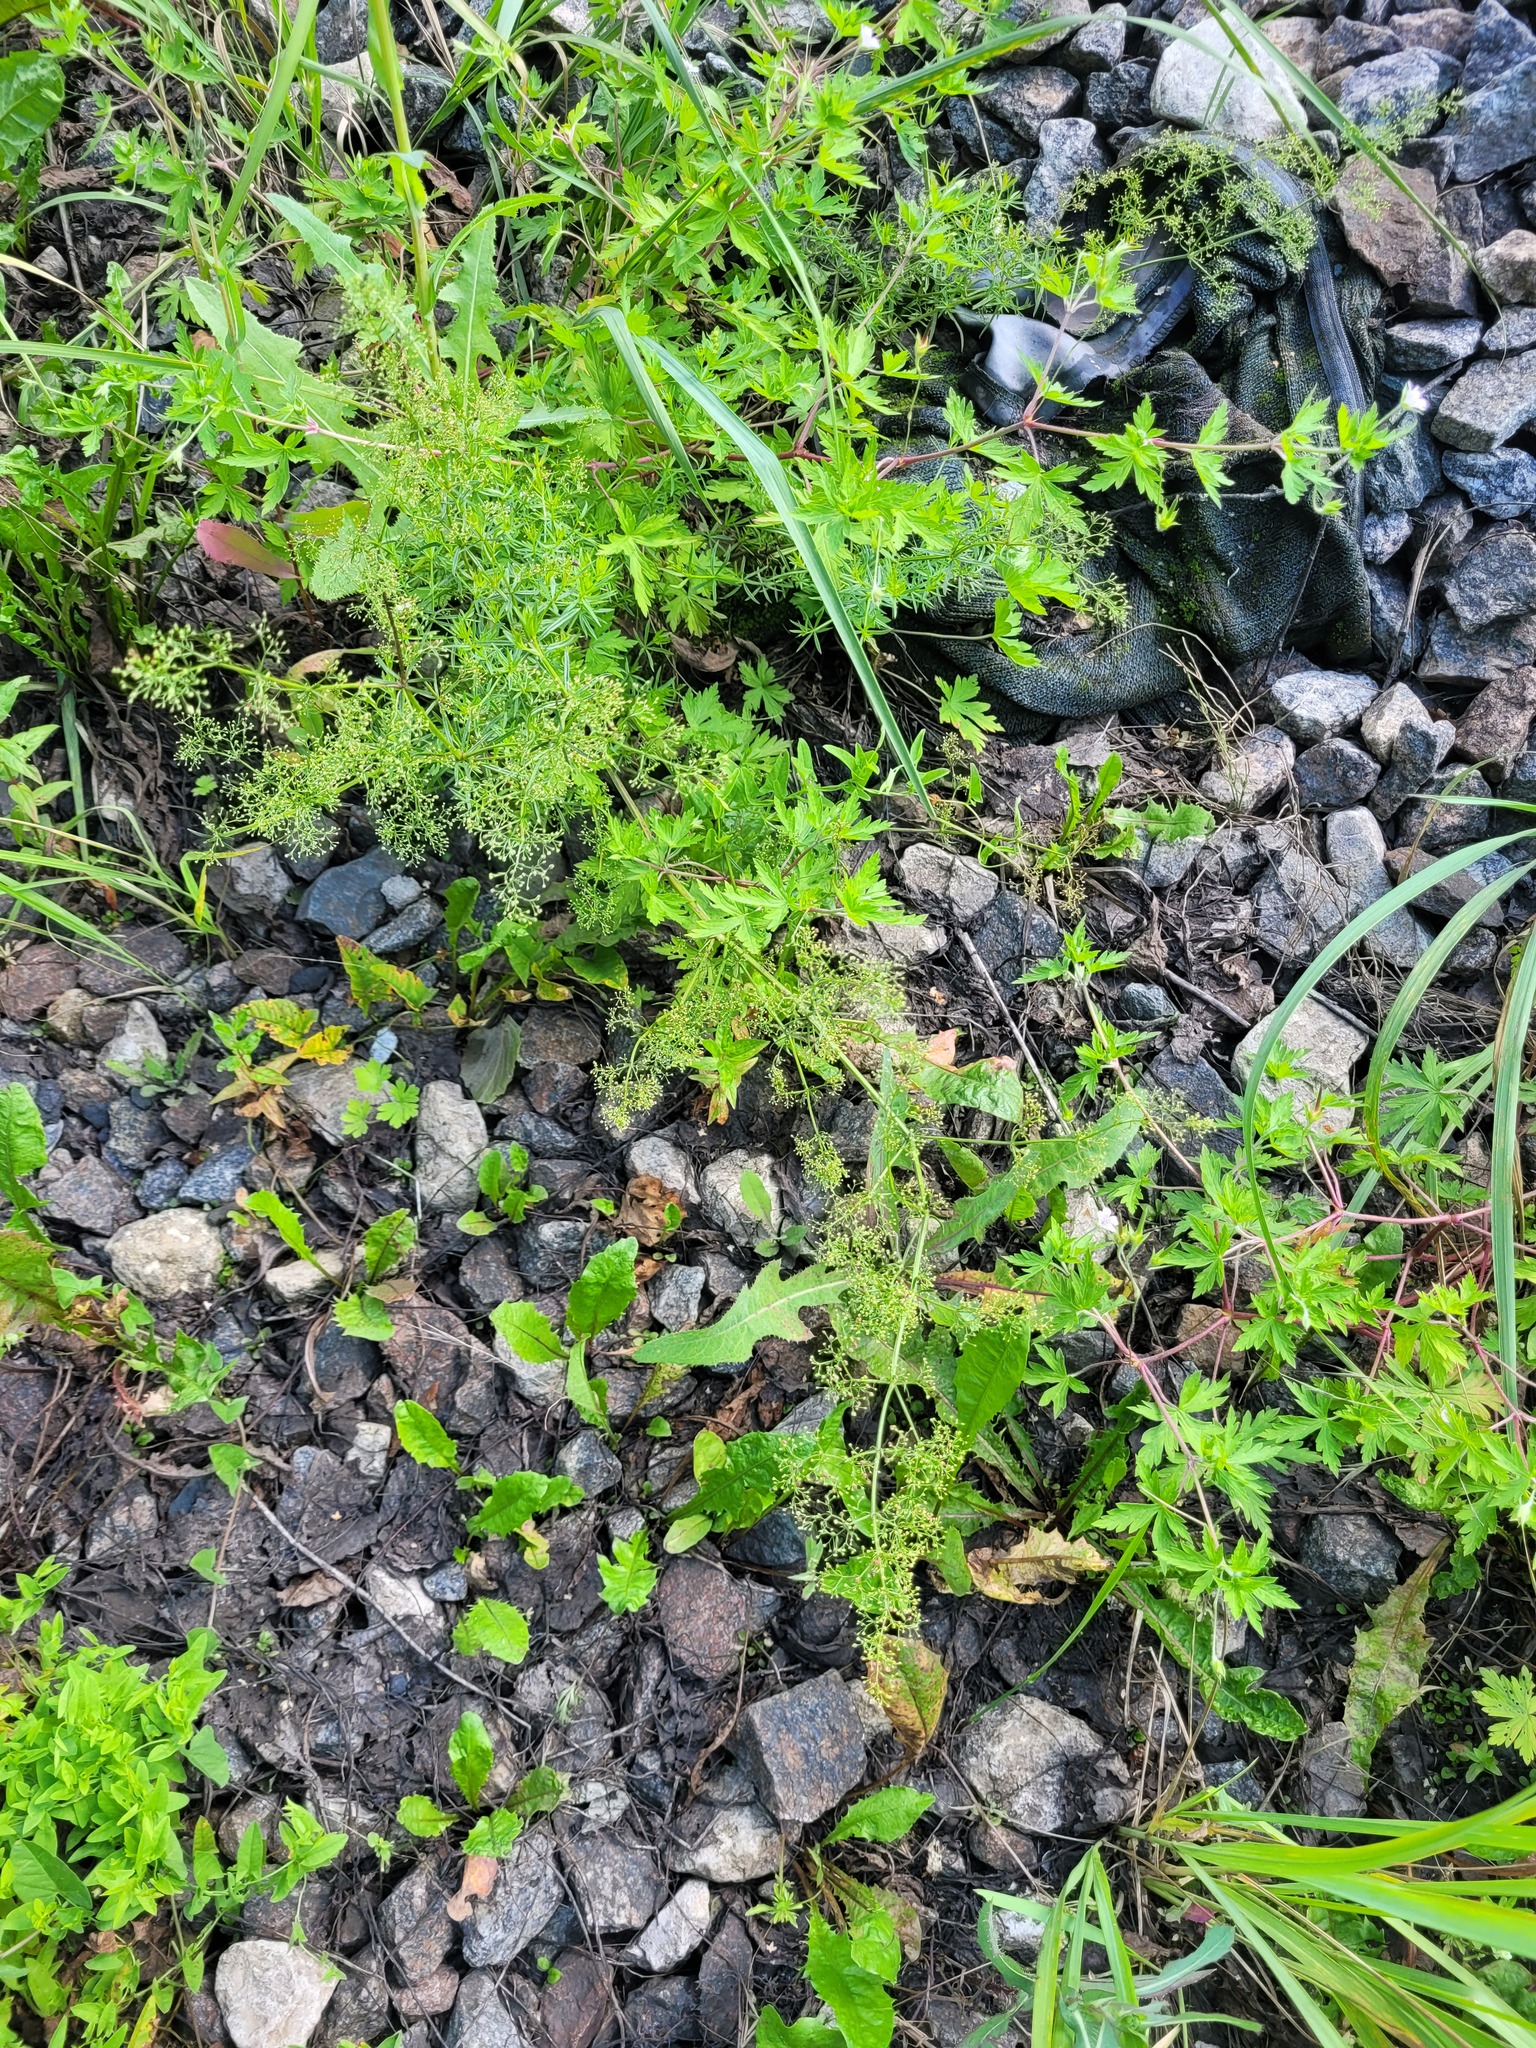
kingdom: Plantae
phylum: Tracheophyta
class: Magnoliopsida
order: Gentianales
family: Rubiaceae
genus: Galium
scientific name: Galium mollugo
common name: Hedge bedstraw
